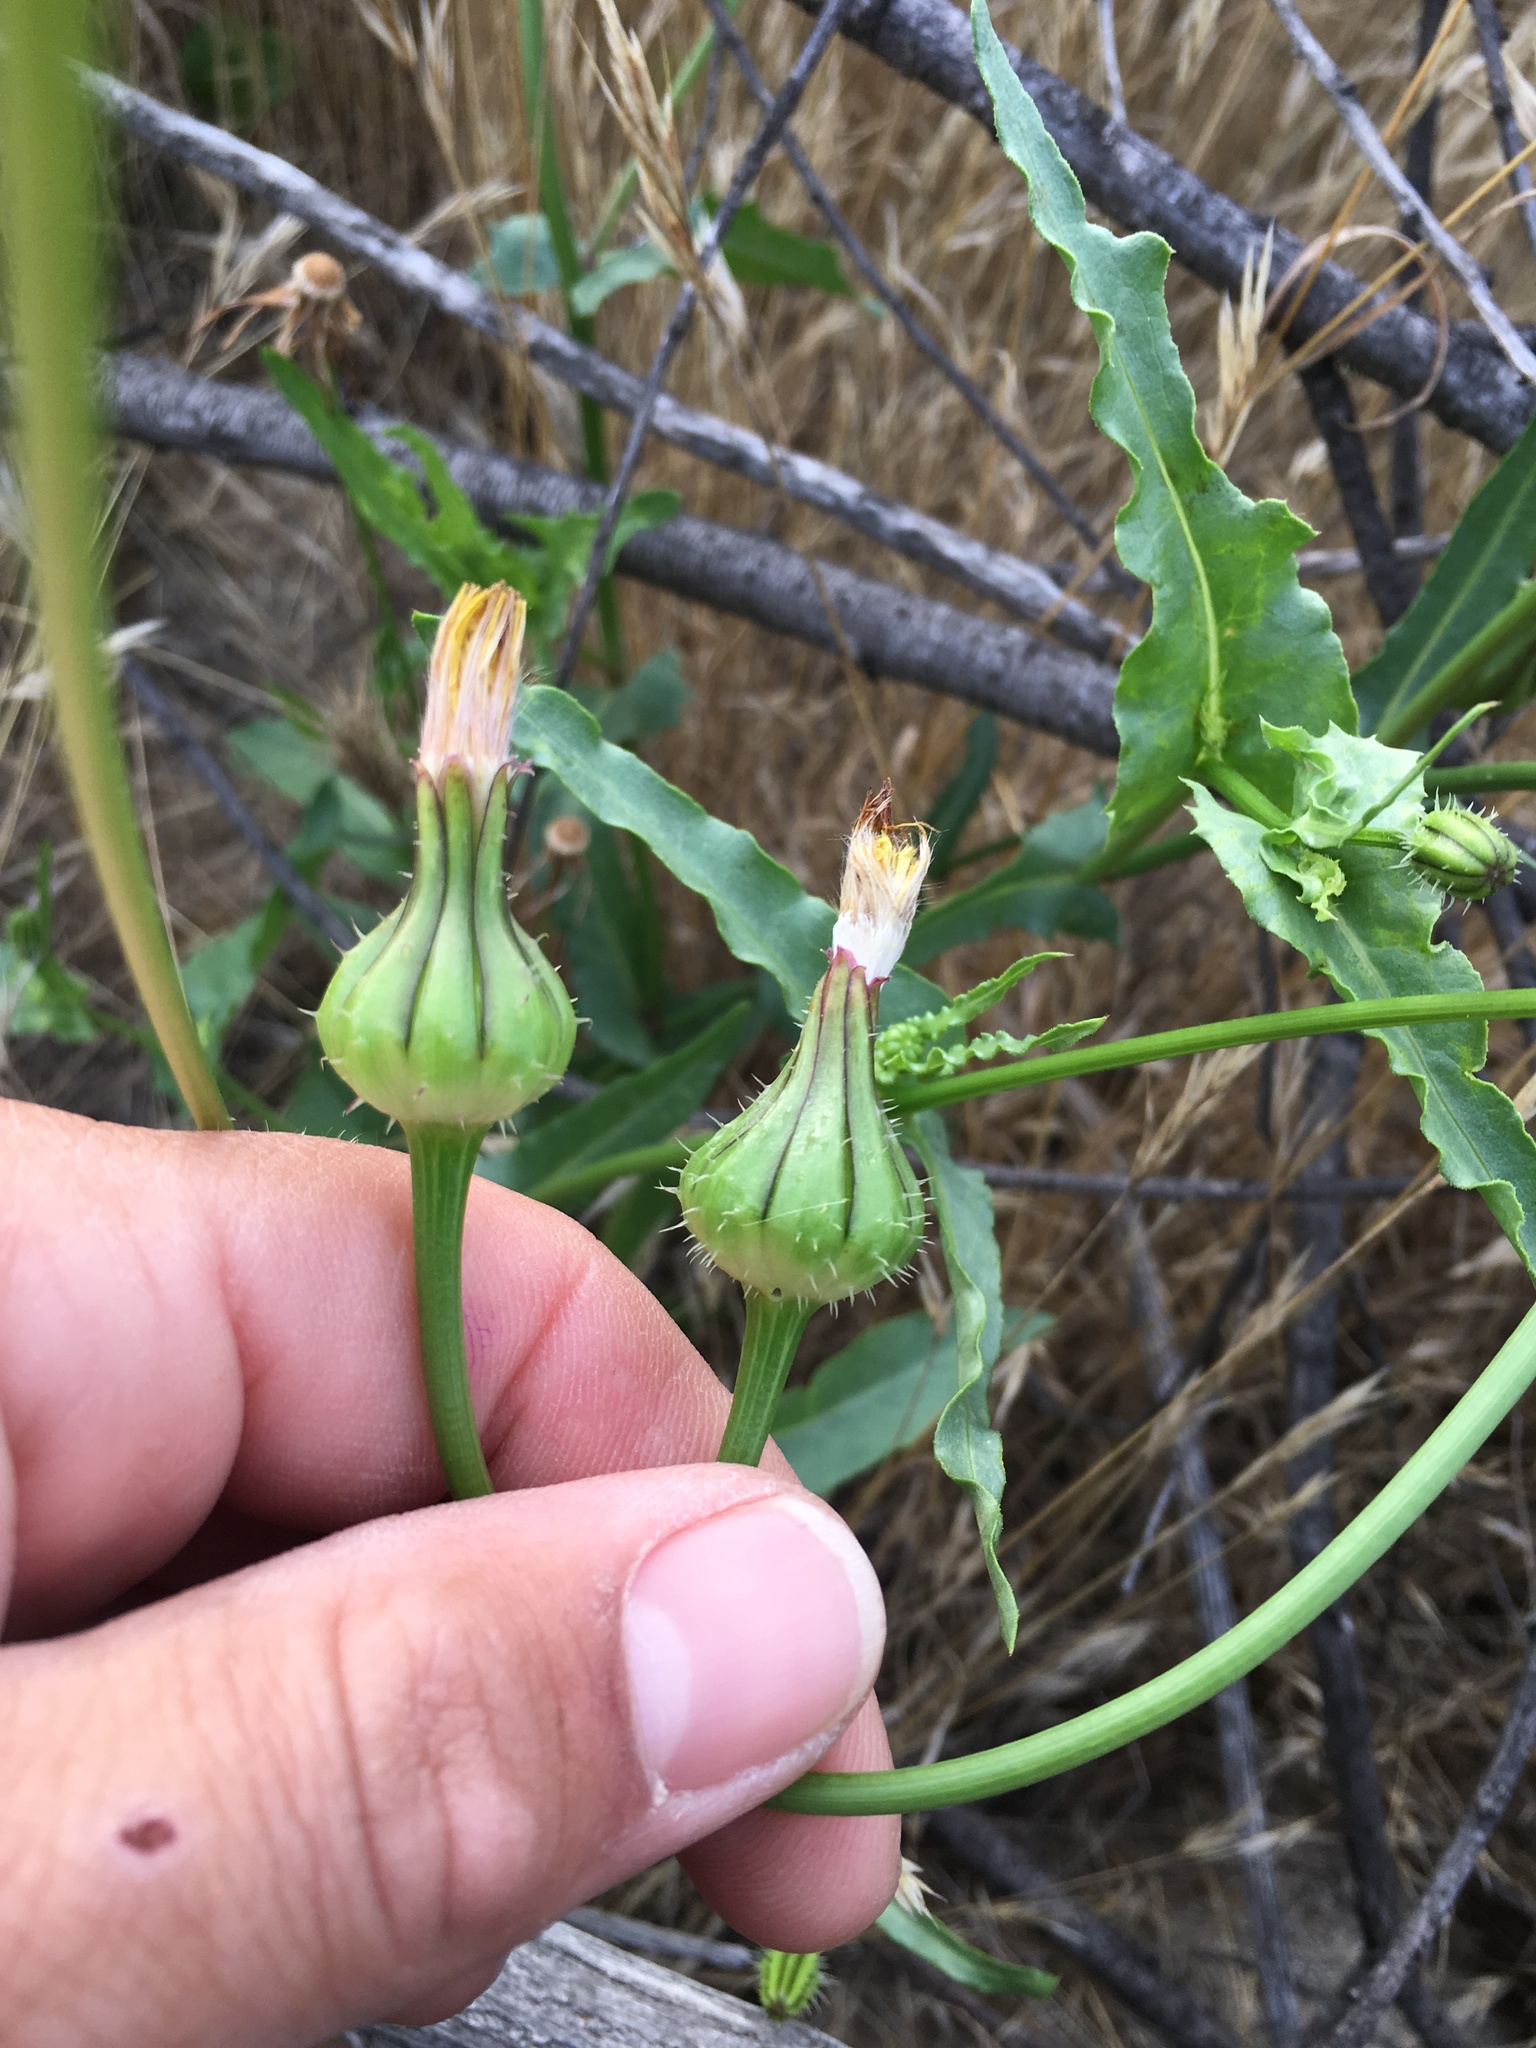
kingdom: Plantae
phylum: Tracheophyta
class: Magnoliopsida
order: Asterales
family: Asteraceae
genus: Urospermum
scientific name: Urospermum picroides
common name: False hawkbit
